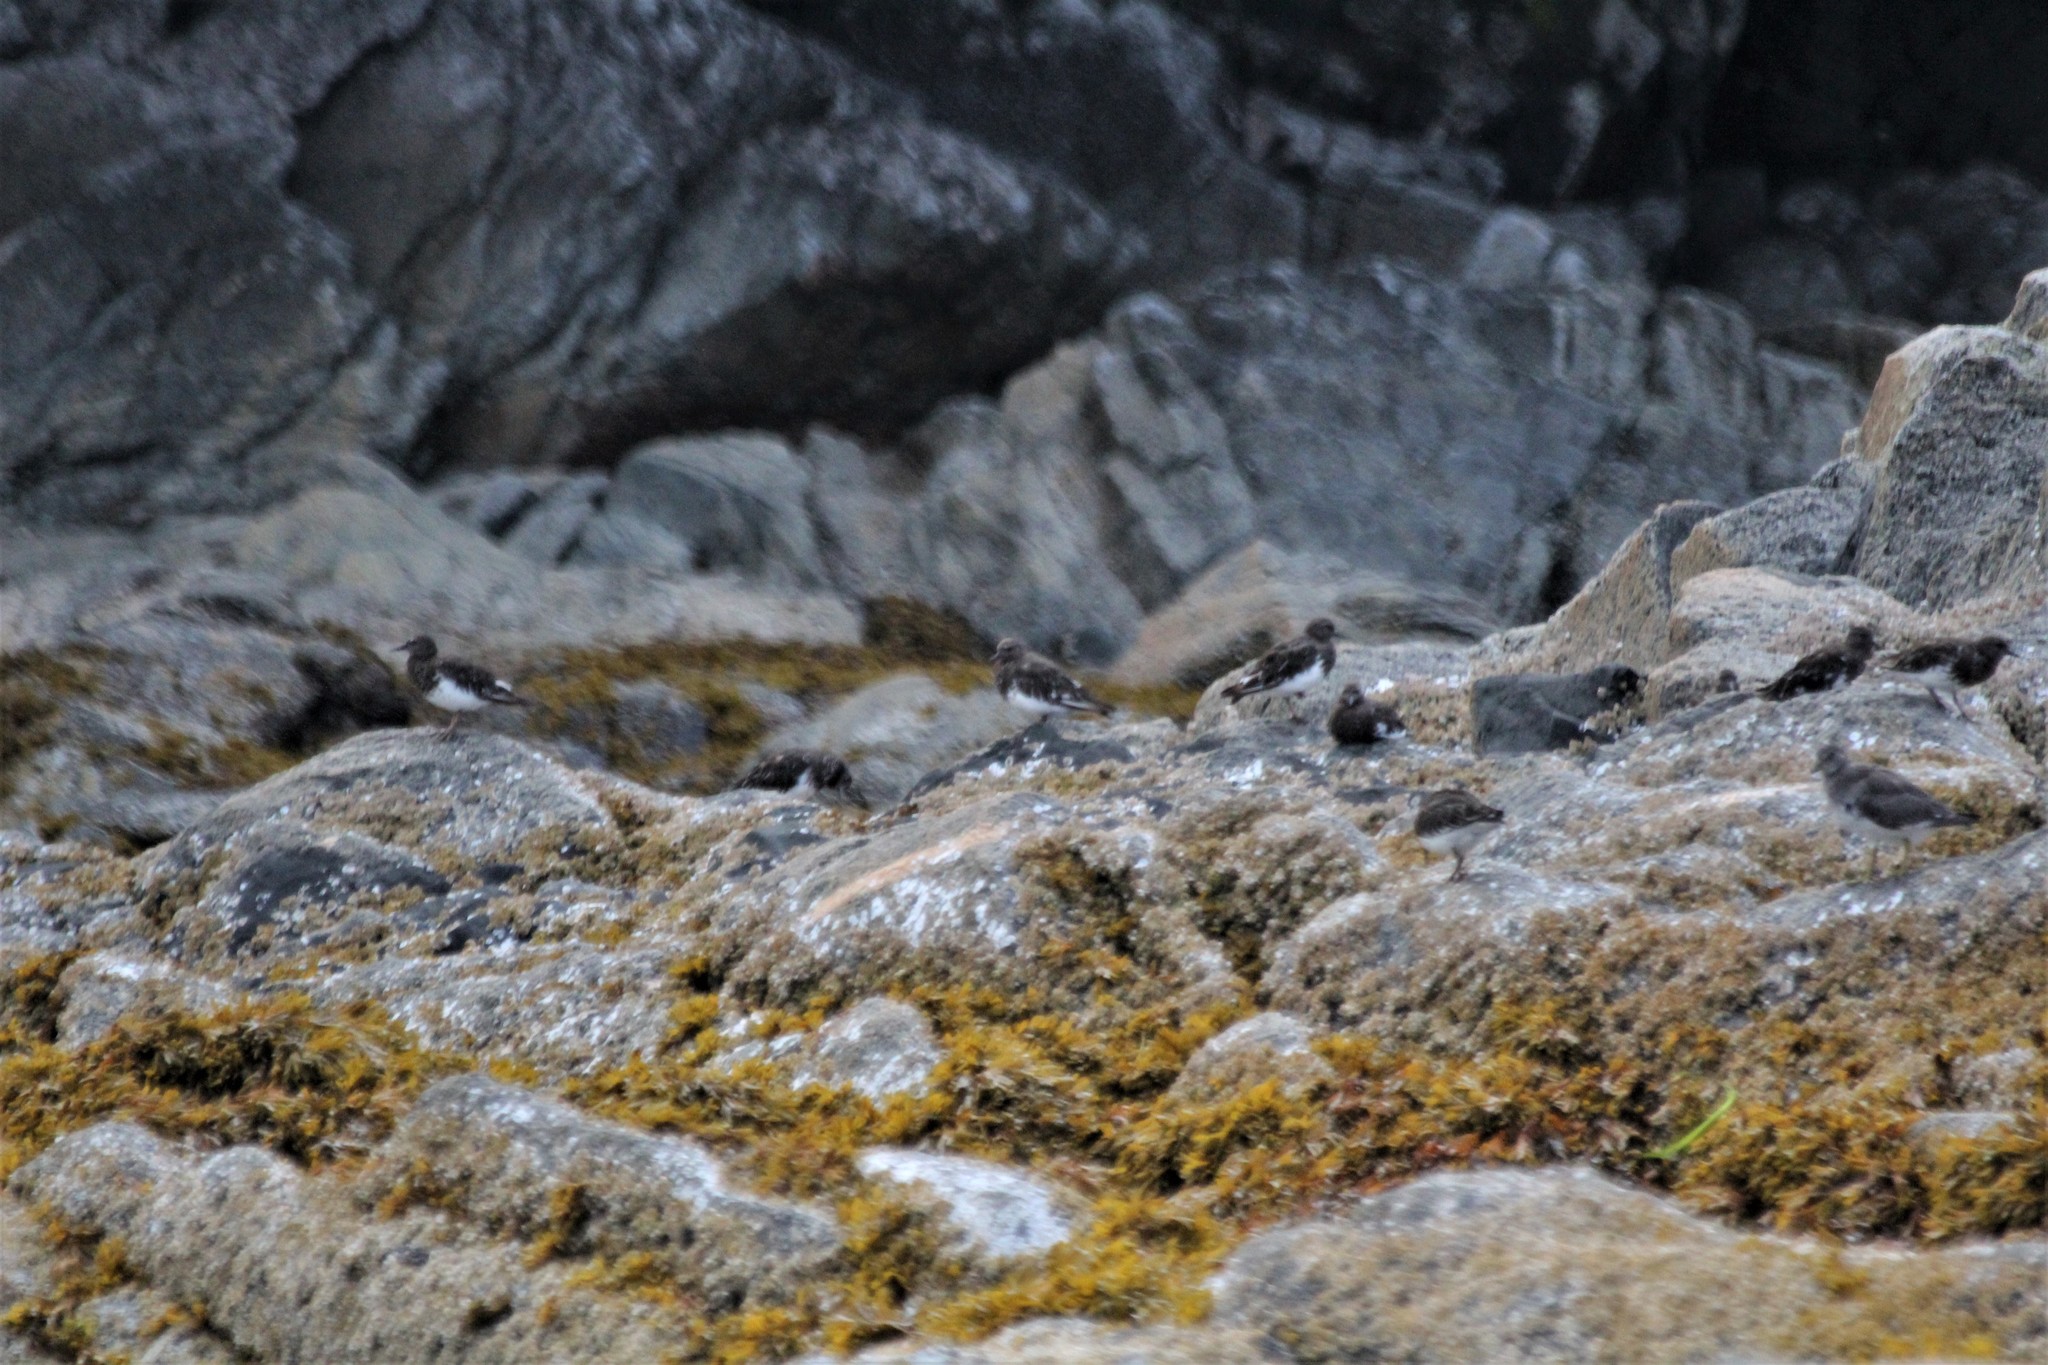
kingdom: Animalia
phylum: Chordata
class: Aves
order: Charadriiformes
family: Scolopacidae
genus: Arenaria
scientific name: Arenaria melanocephala
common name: Black turnstone
